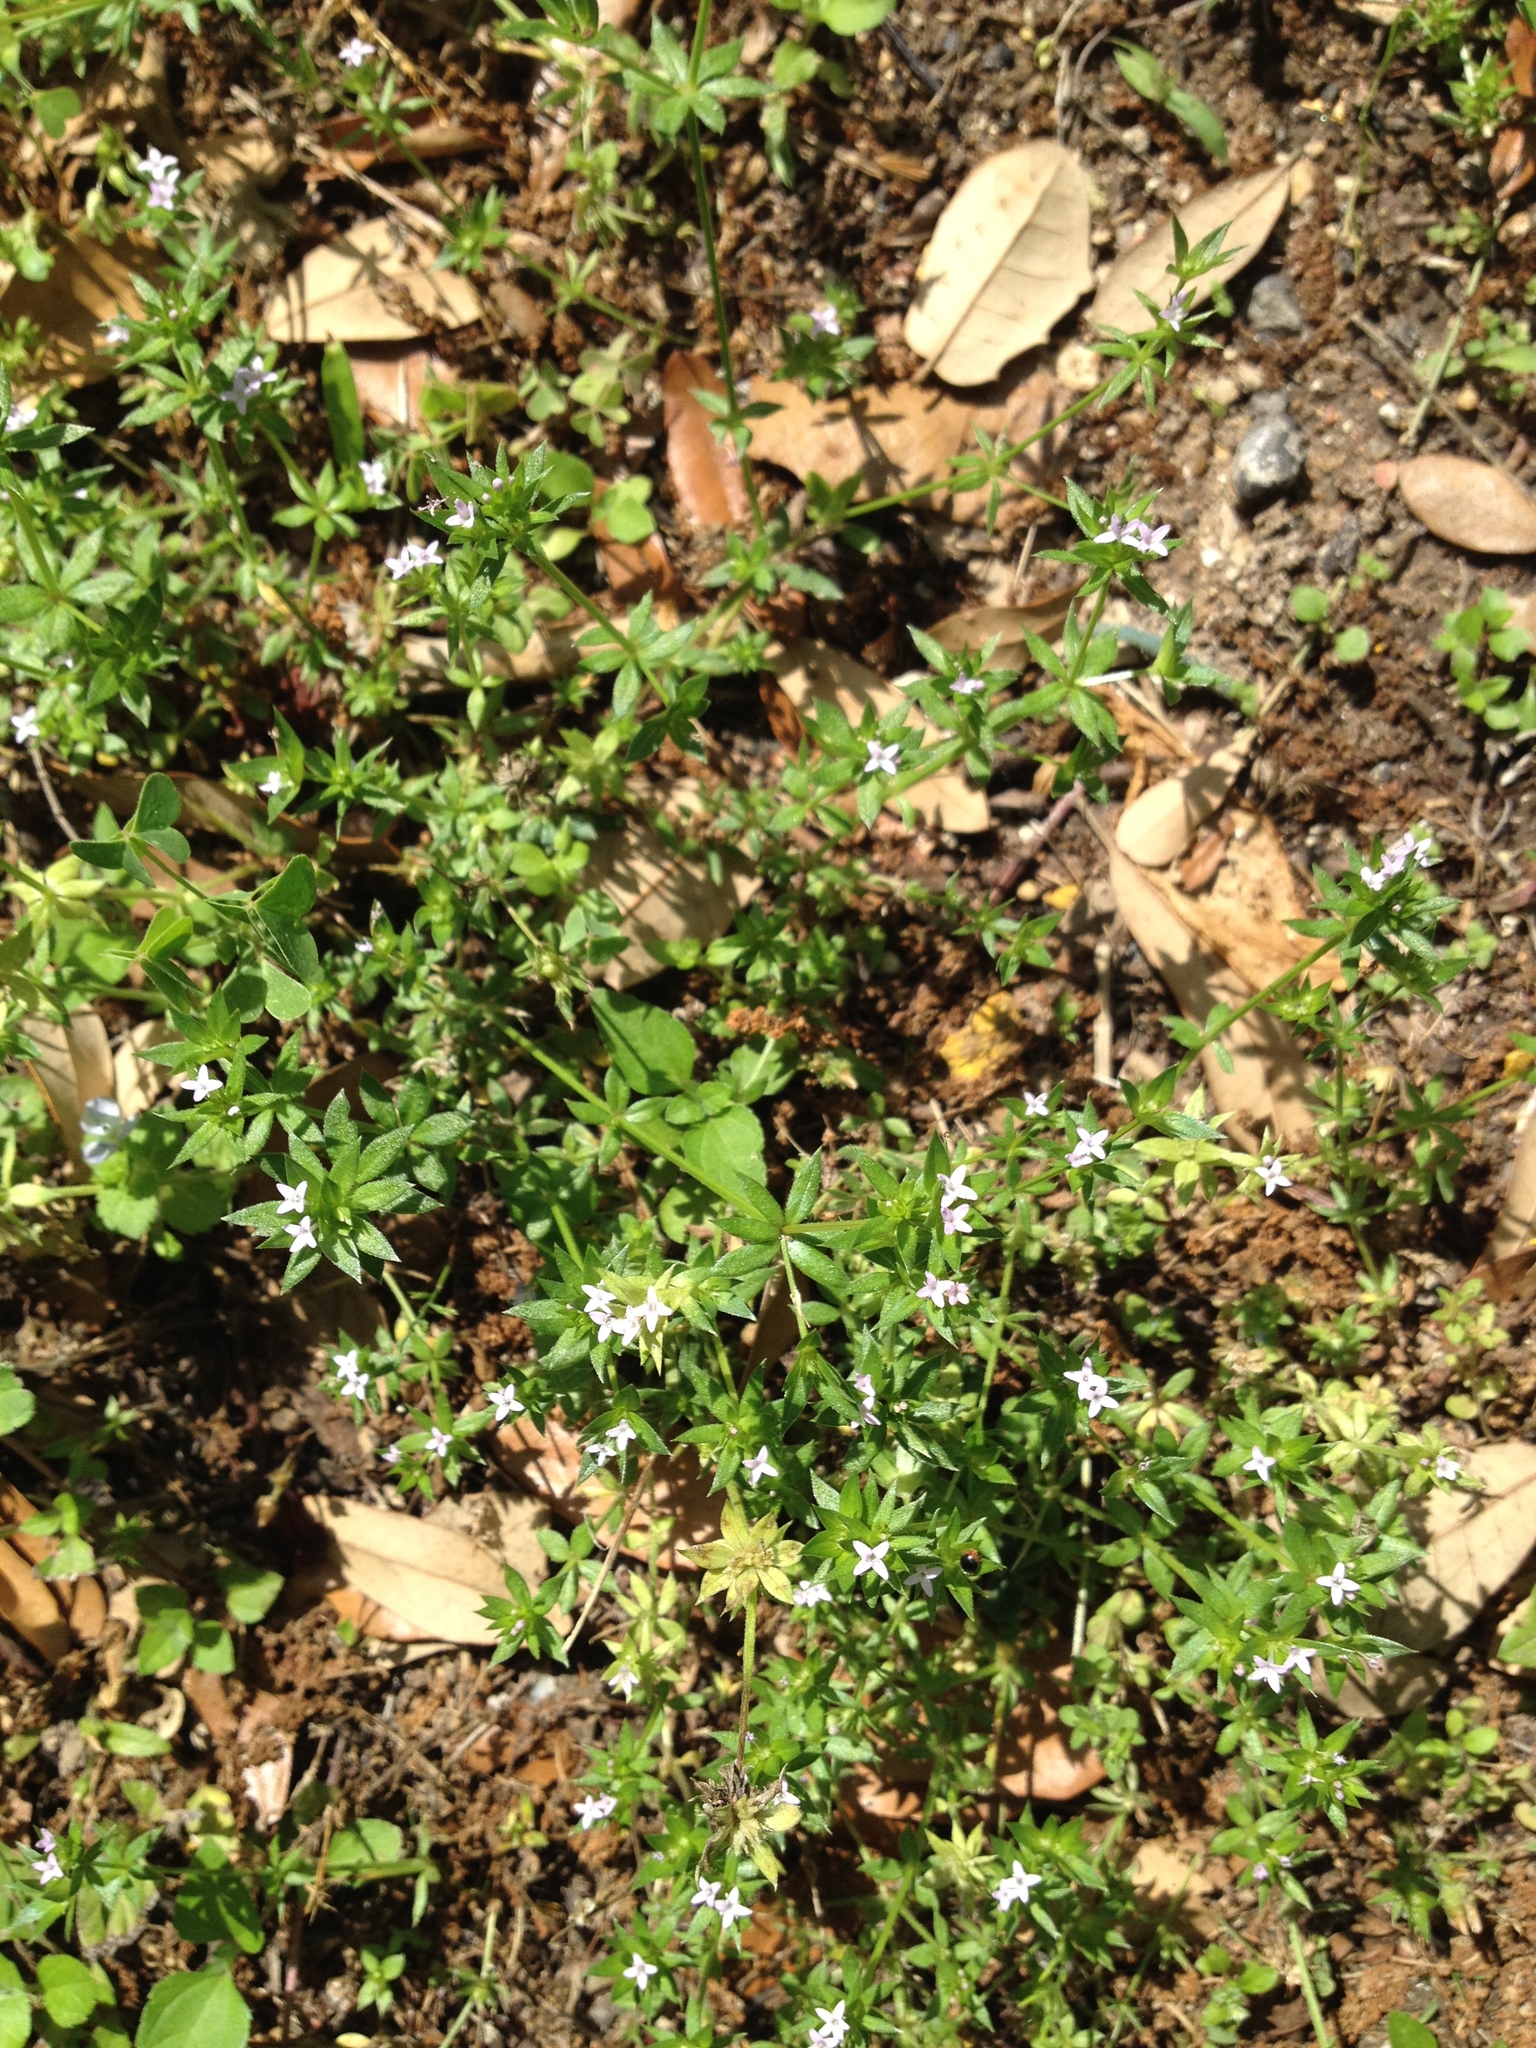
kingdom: Plantae
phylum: Tracheophyta
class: Magnoliopsida
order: Gentianales
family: Rubiaceae
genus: Sherardia
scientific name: Sherardia arvensis
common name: Field madder
